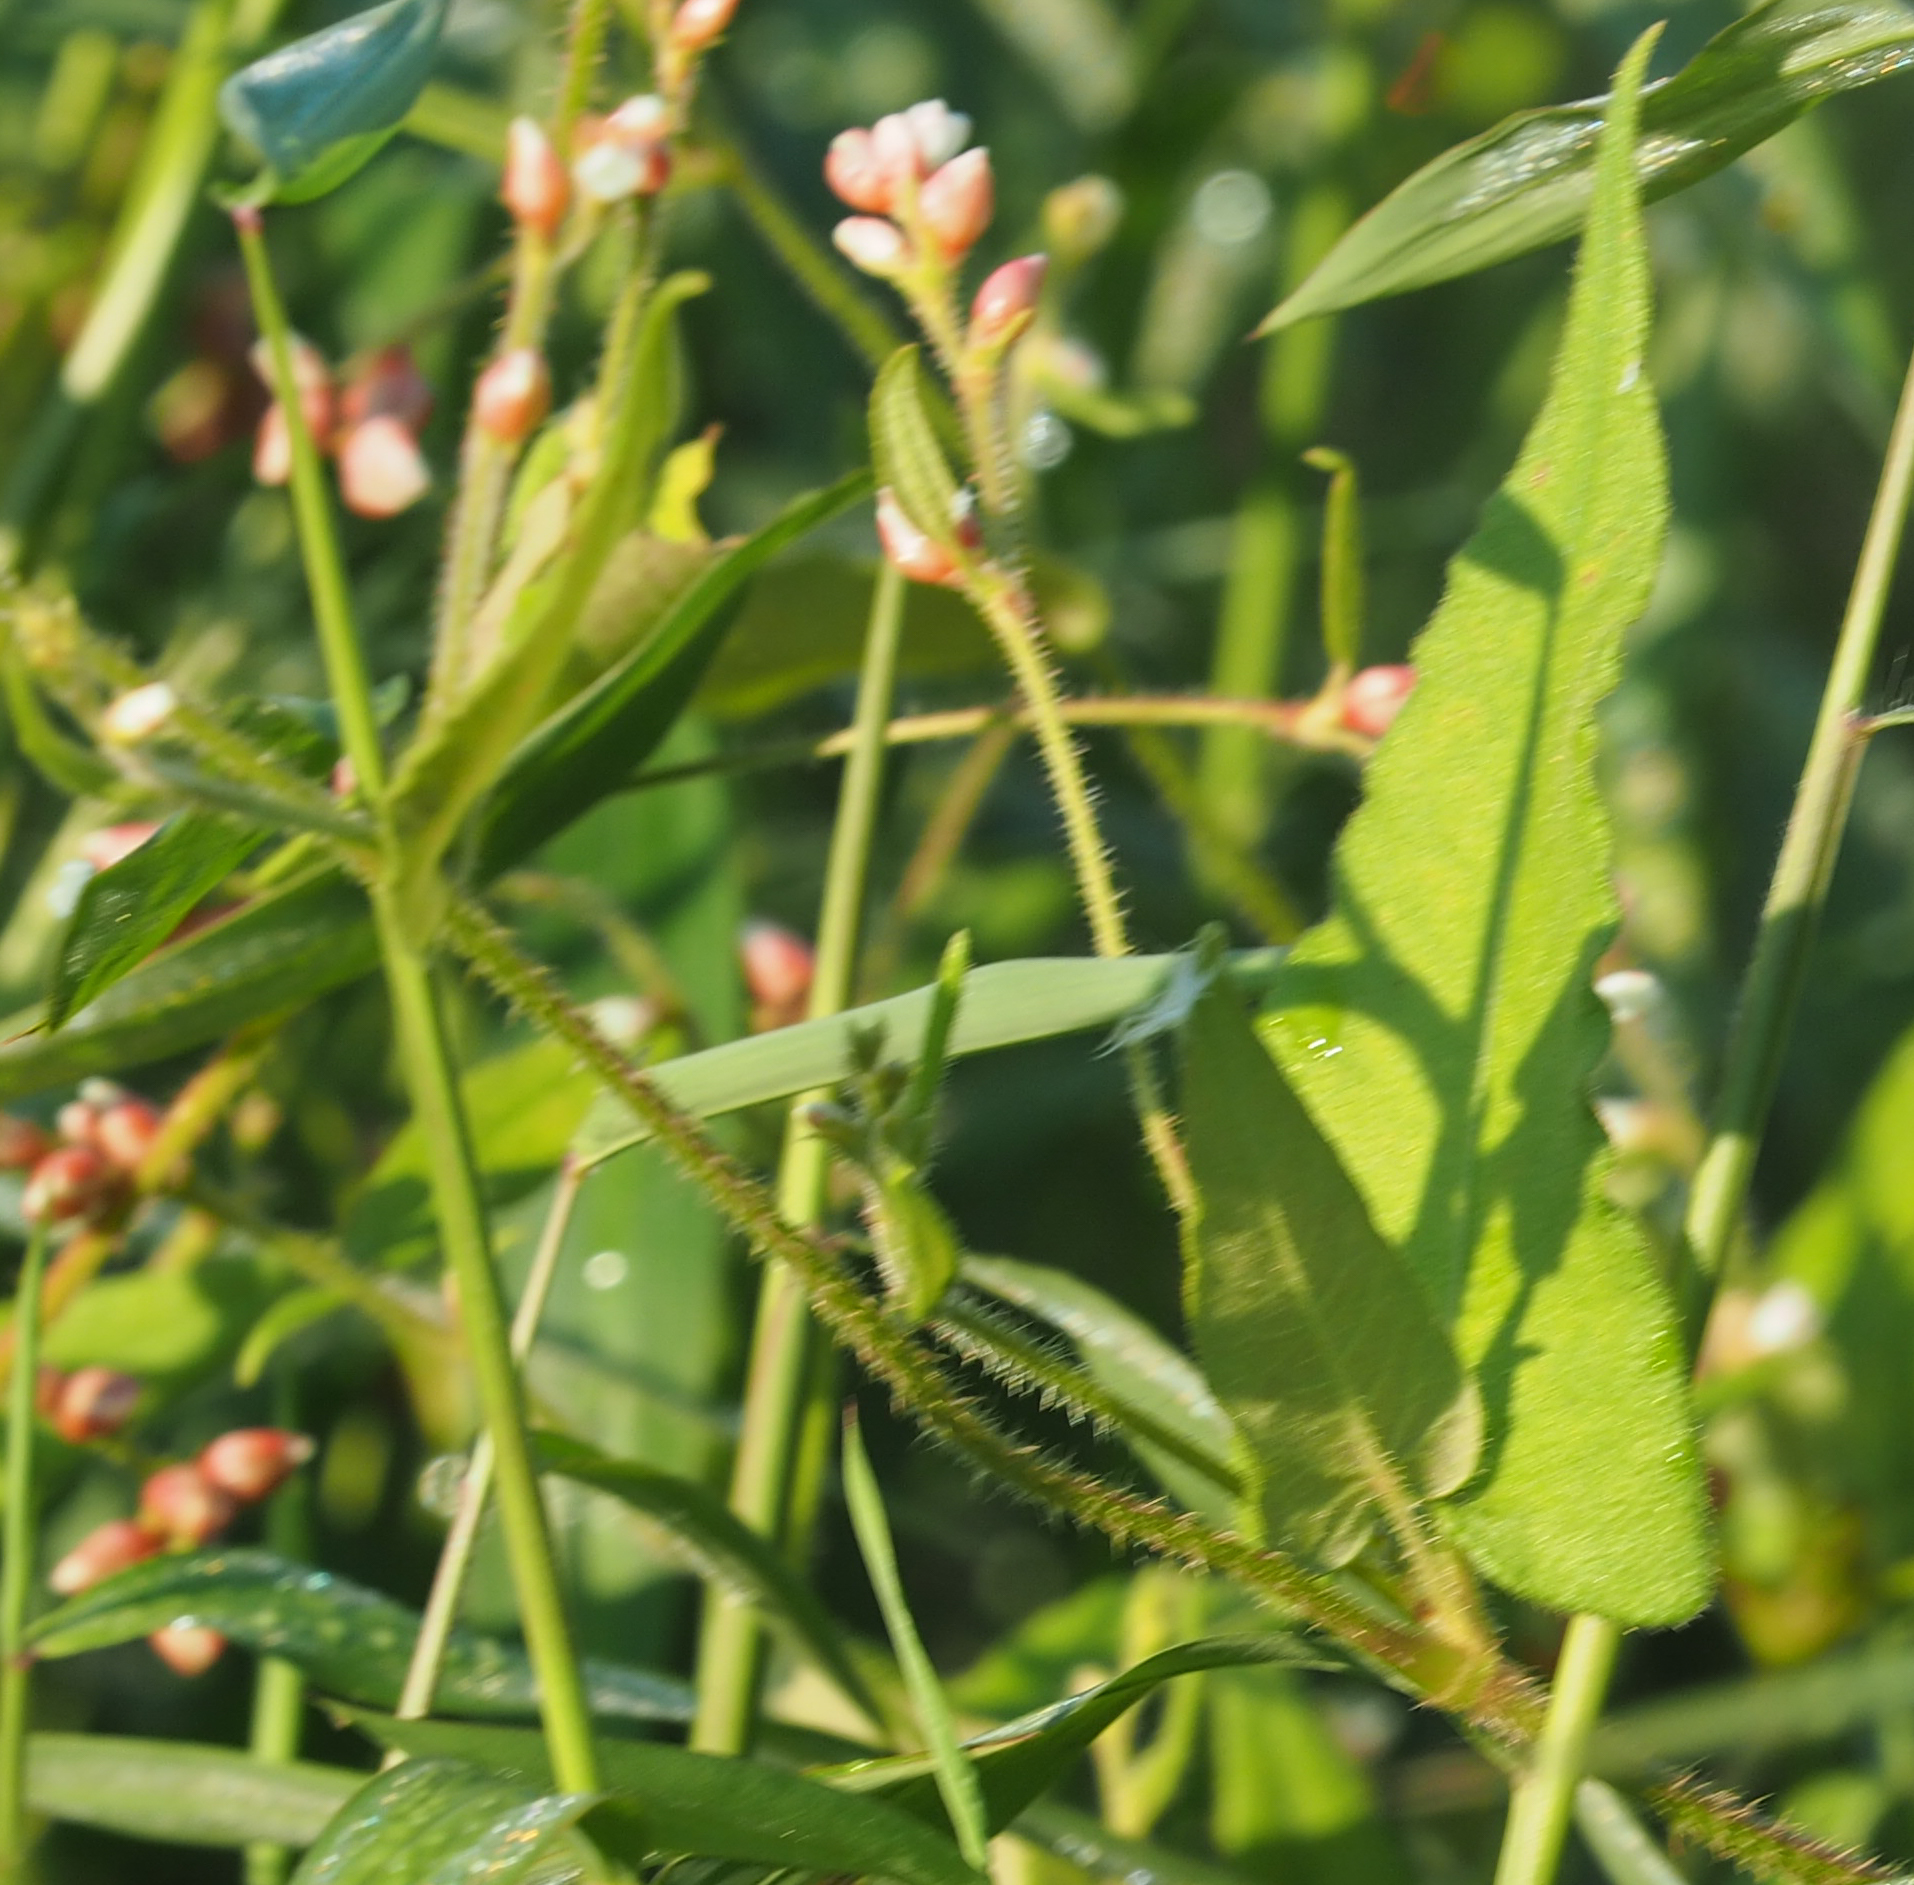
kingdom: Plantae
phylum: Tracheophyta
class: Magnoliopsida
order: Caryophyllales
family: Polygonaceae
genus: Persicaria
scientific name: Persicaria arifolia
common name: Halberd-leaved tear-thumb
